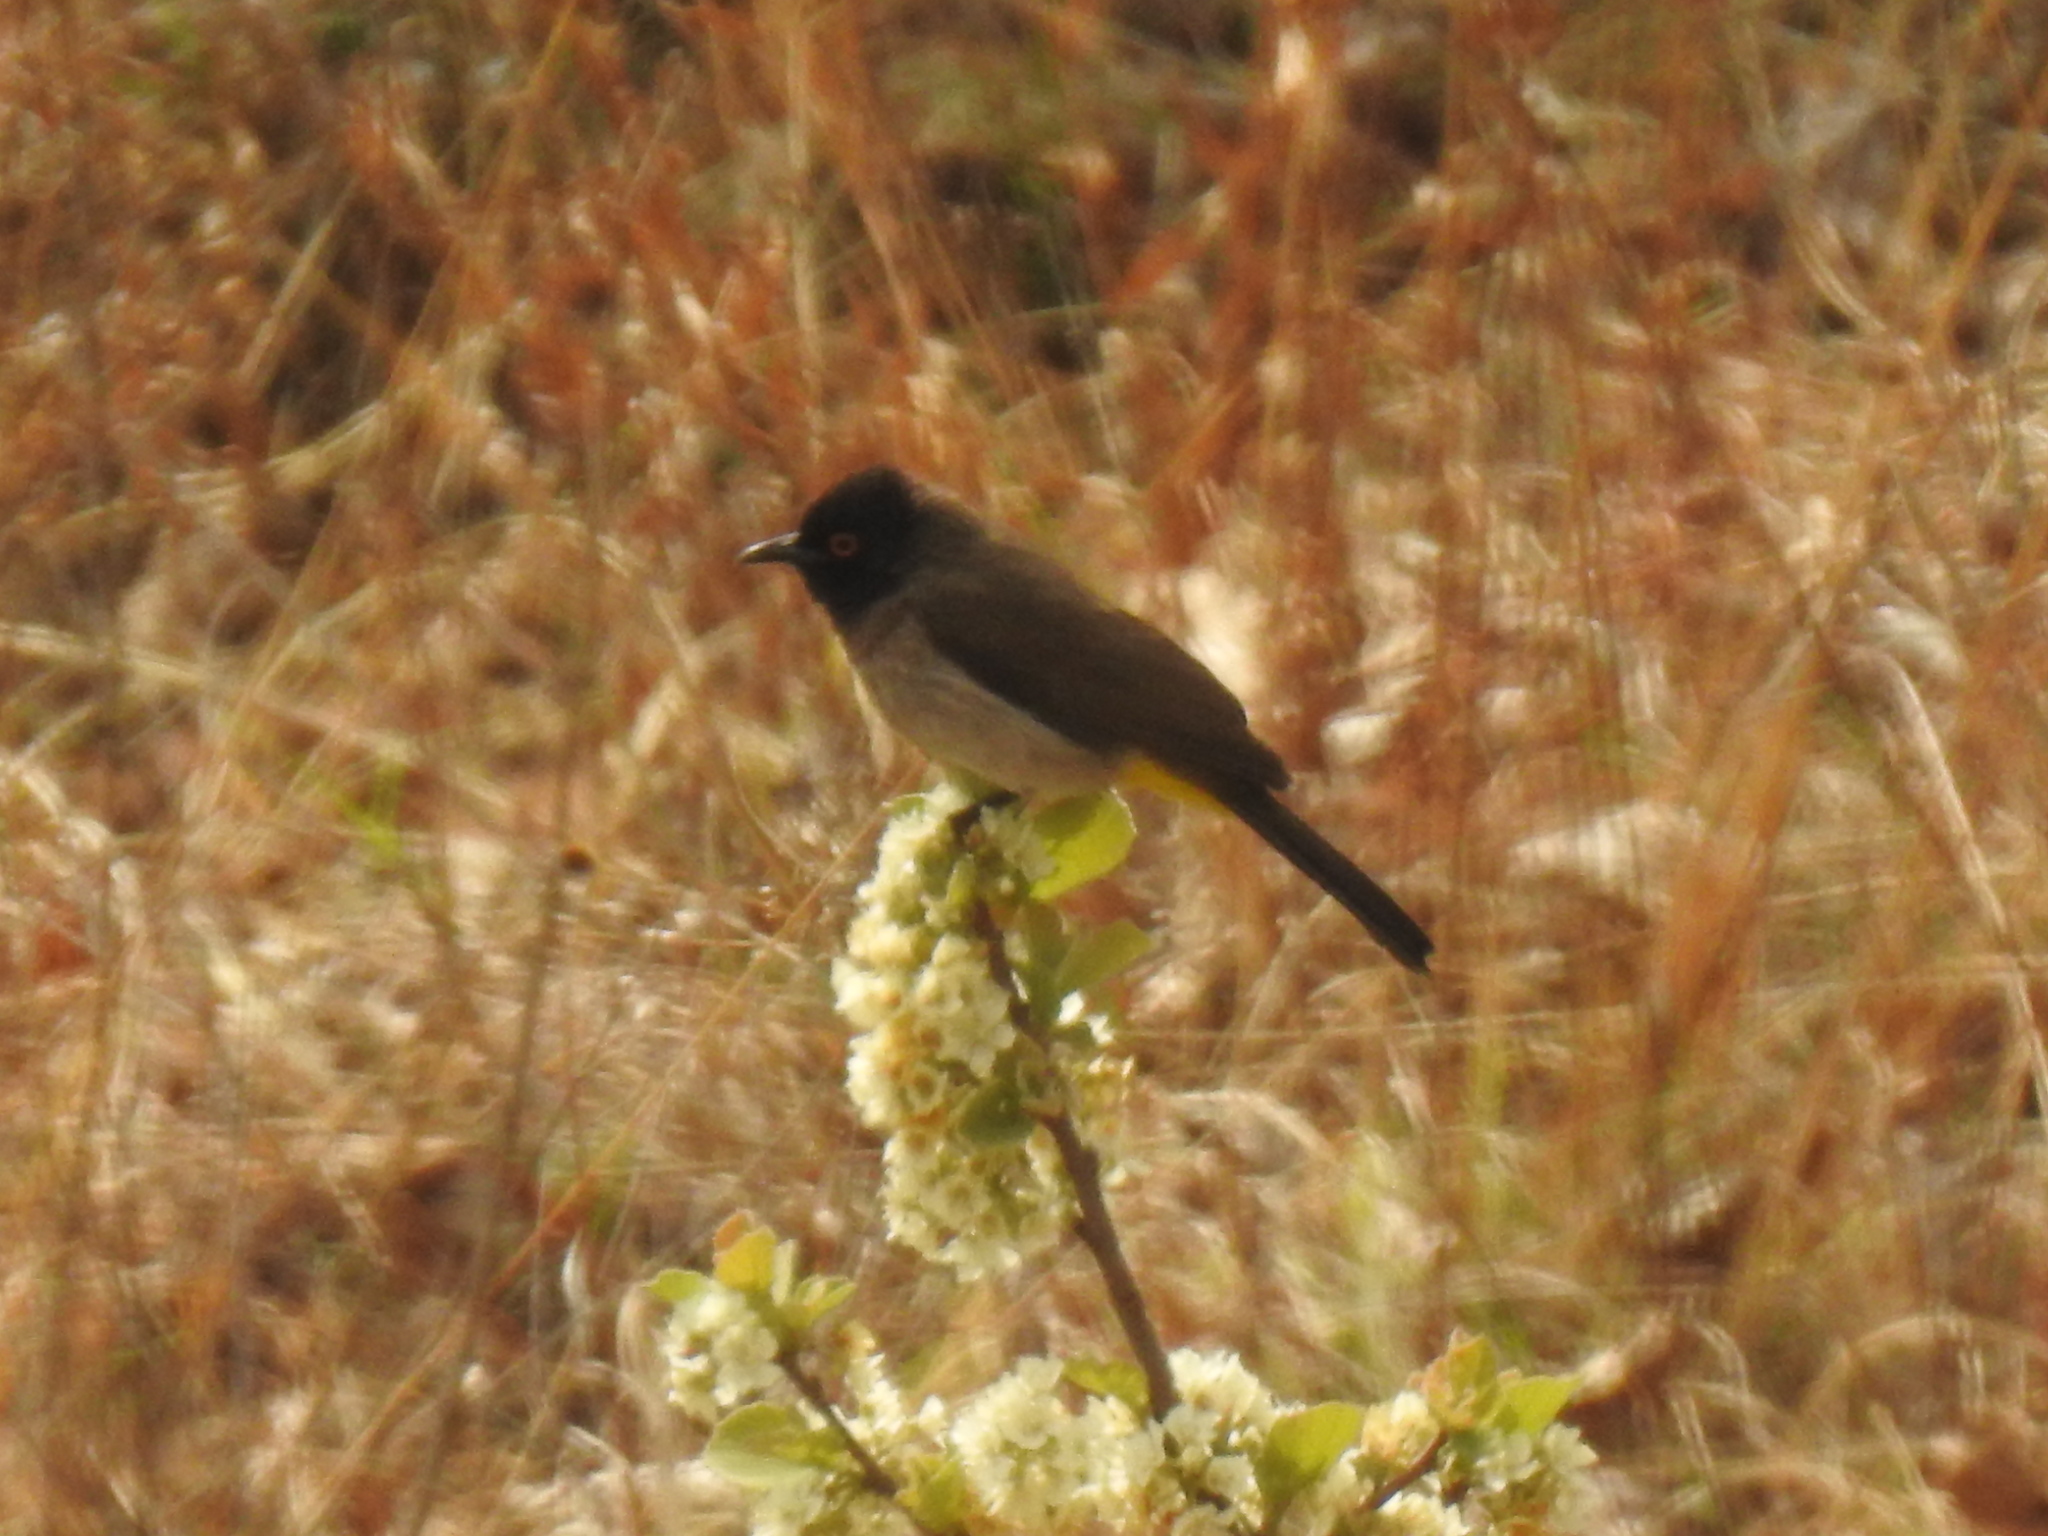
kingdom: Animalia
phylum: Chordata
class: Aves
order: Passeriformes
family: Pycnonotidae
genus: Pycnonotus
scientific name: Pycnonotus barbatus
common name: Common bulbul
